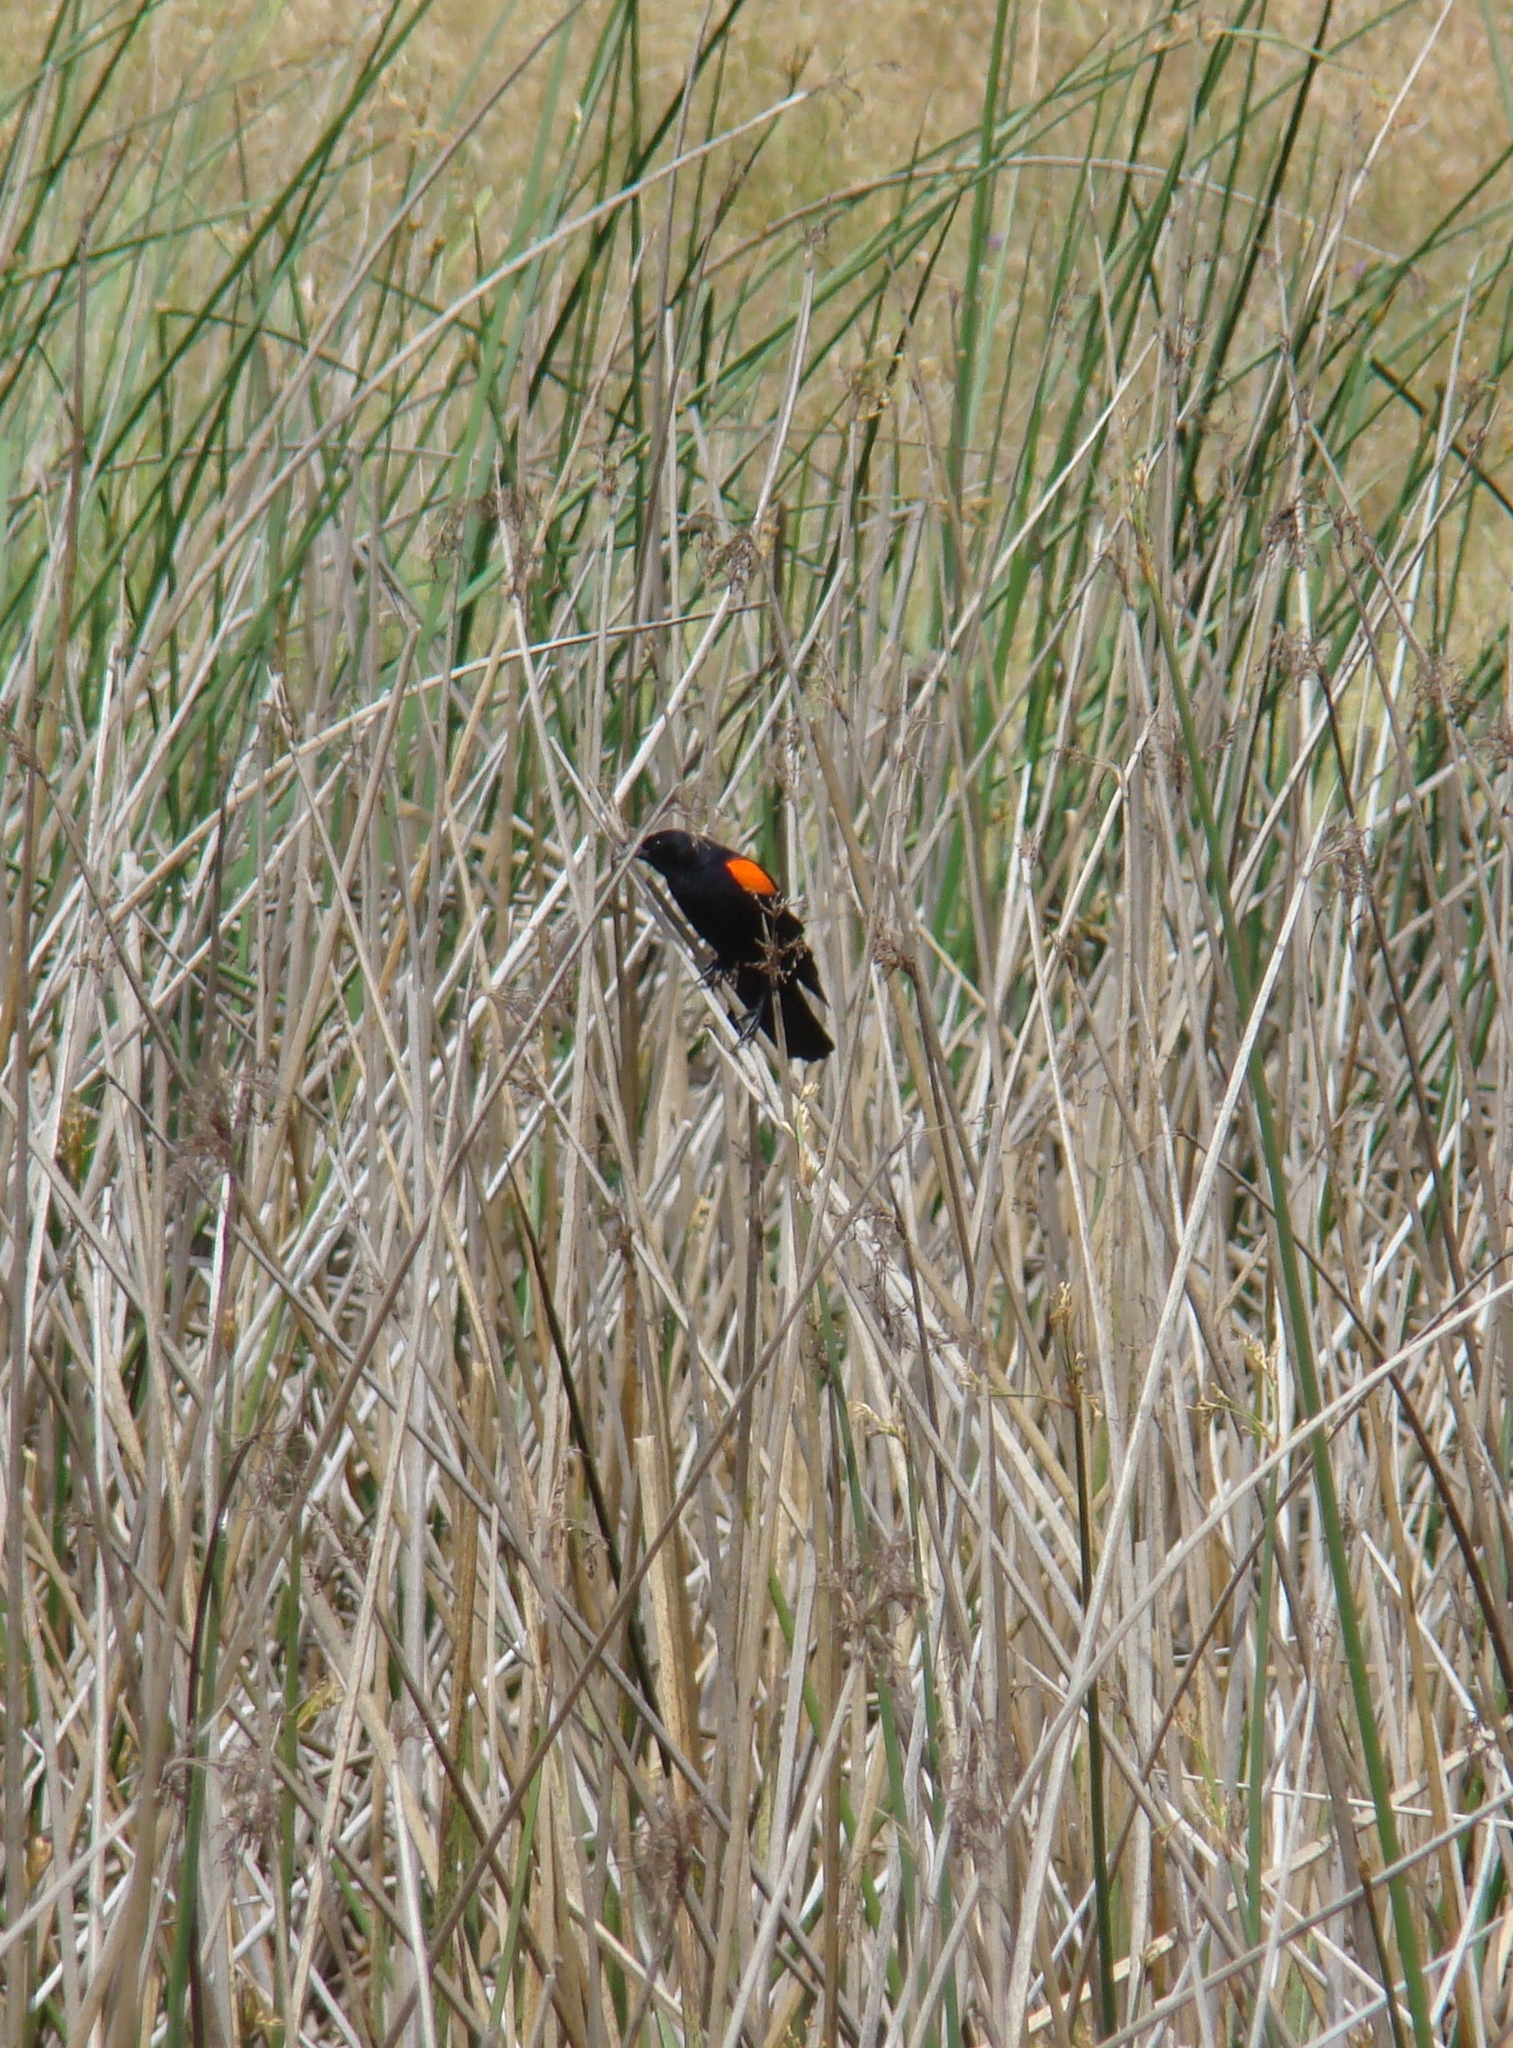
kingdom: Animalia
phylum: Chordata
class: Aves
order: Passeriformes
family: Icteridae
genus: Agelaius
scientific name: Agelaius phoeniceus
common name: Red-winged blackbird
